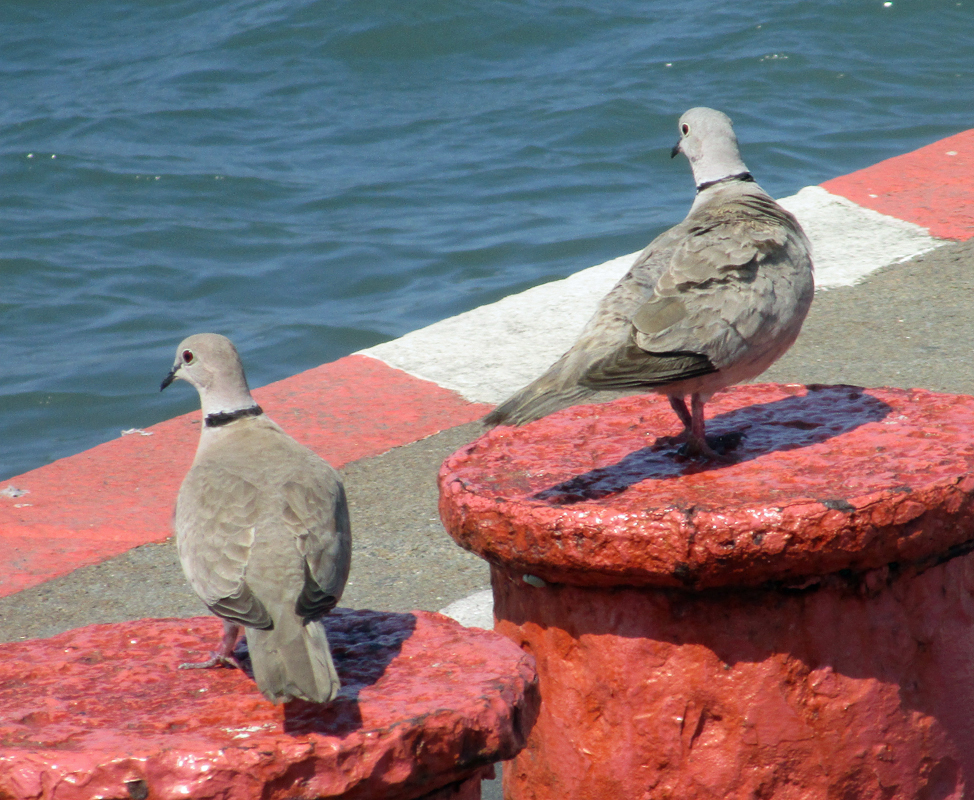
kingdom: Animalia
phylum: Chordata
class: Aves
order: Columbiformes
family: Columbidae
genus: Streptopelia
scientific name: Streptopelia decaocto
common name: Eurasian collared dove
